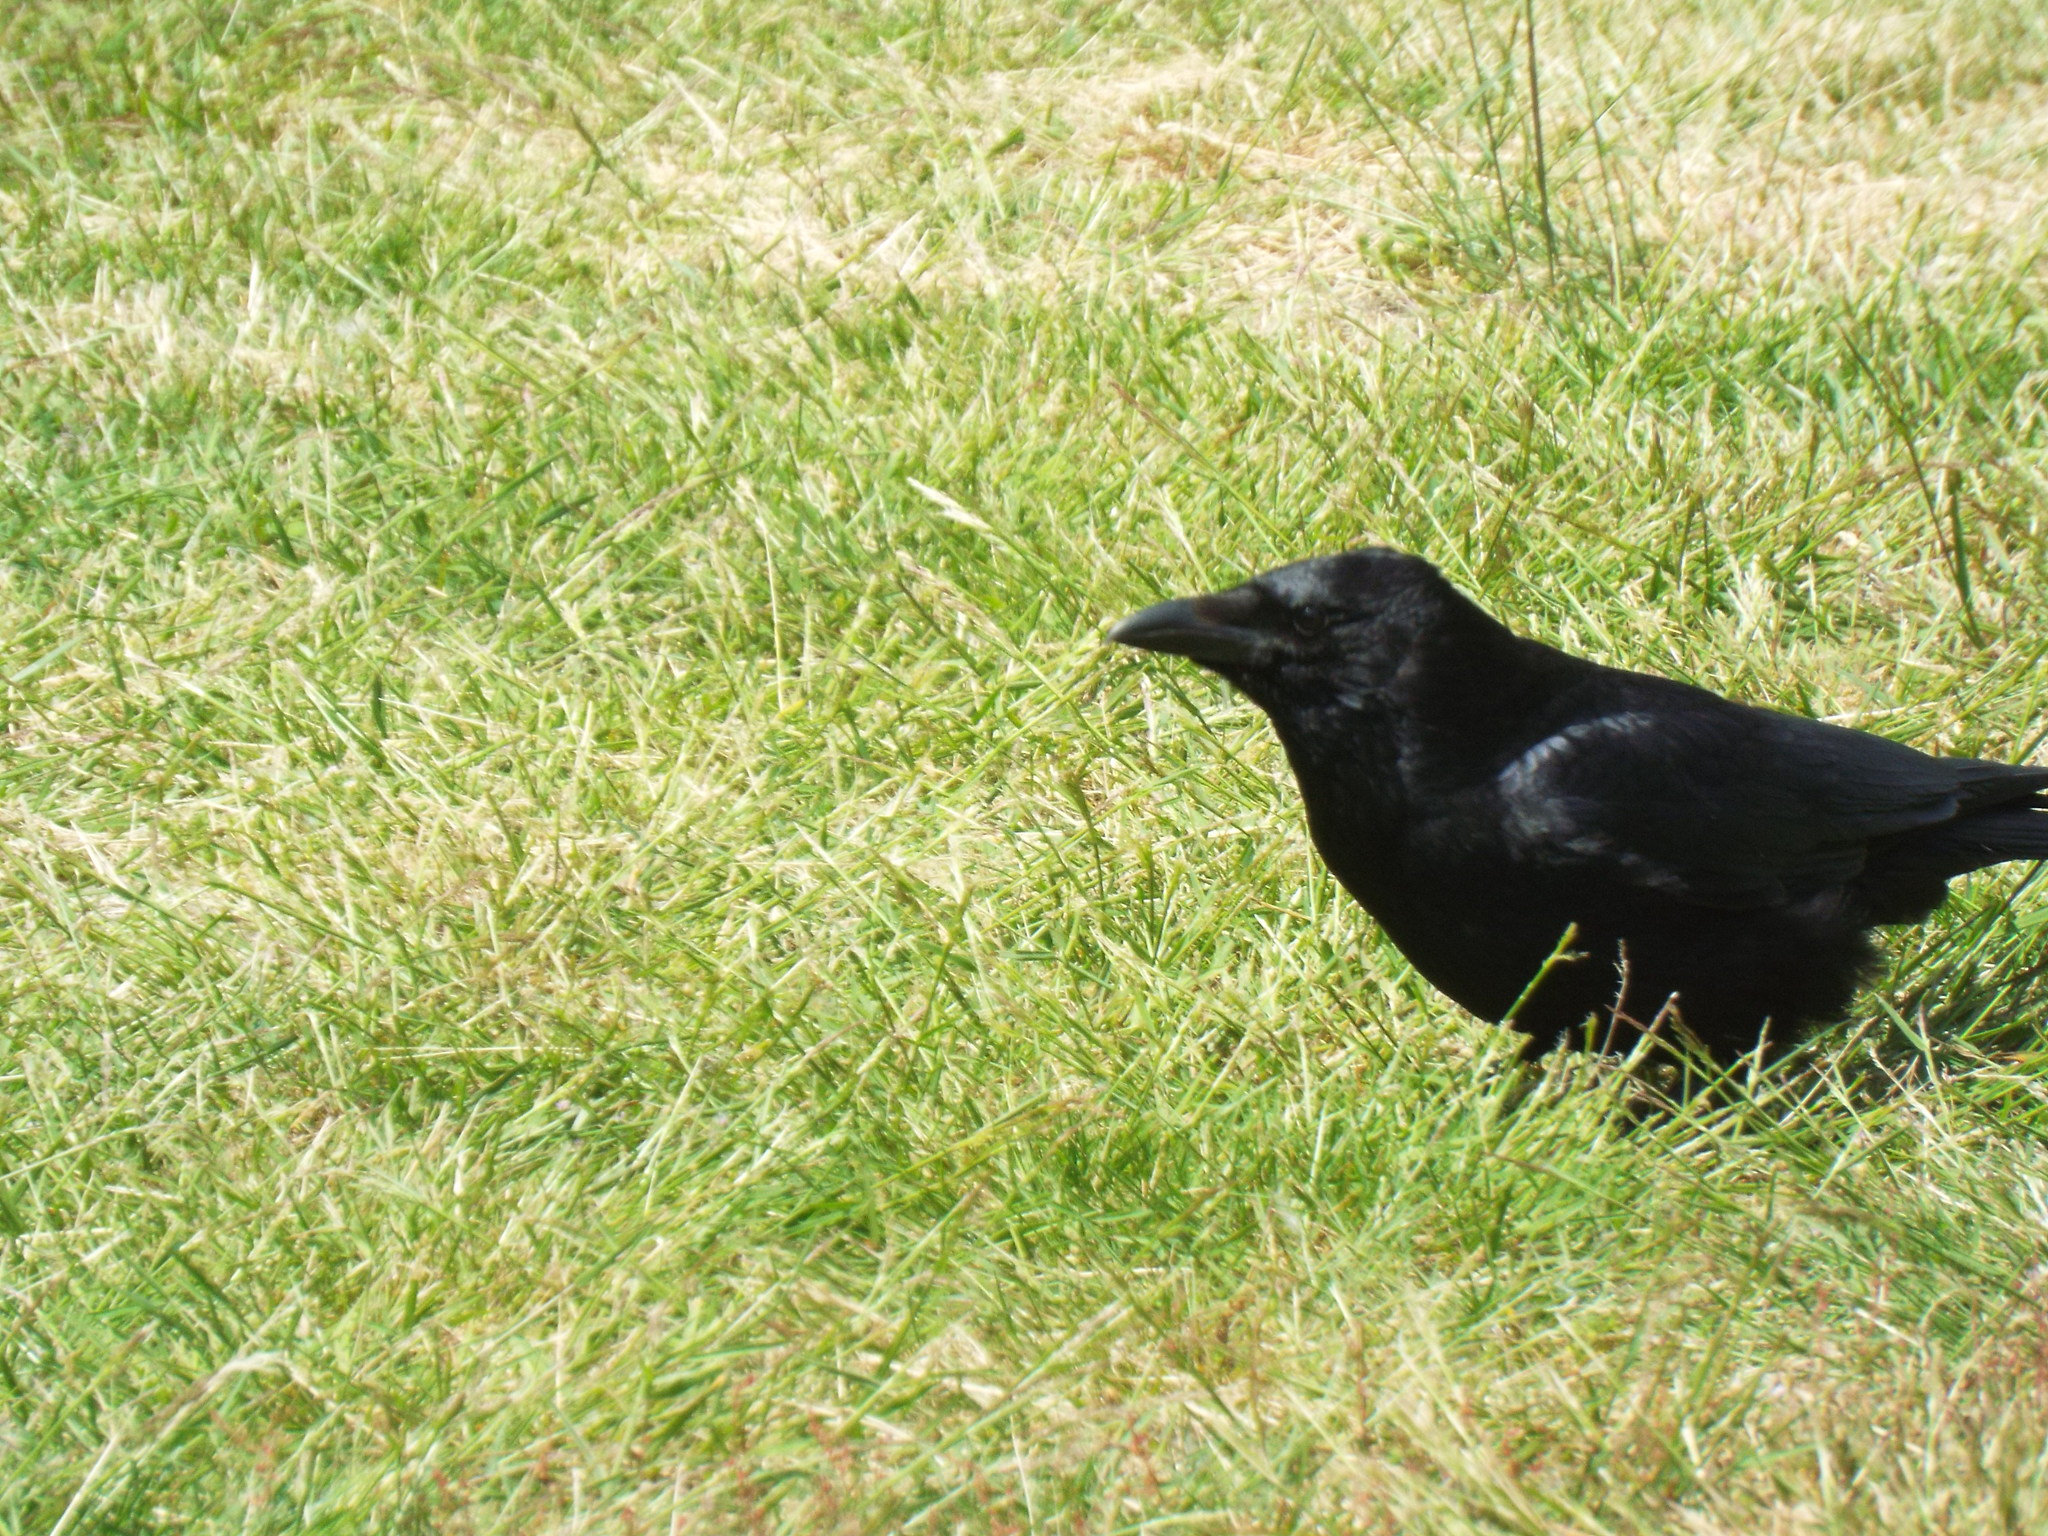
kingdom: Animalia
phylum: Chordata
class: Aves
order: Passeriformes
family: Corvidae
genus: Corvus
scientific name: Corvus corone
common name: Carrion crow
